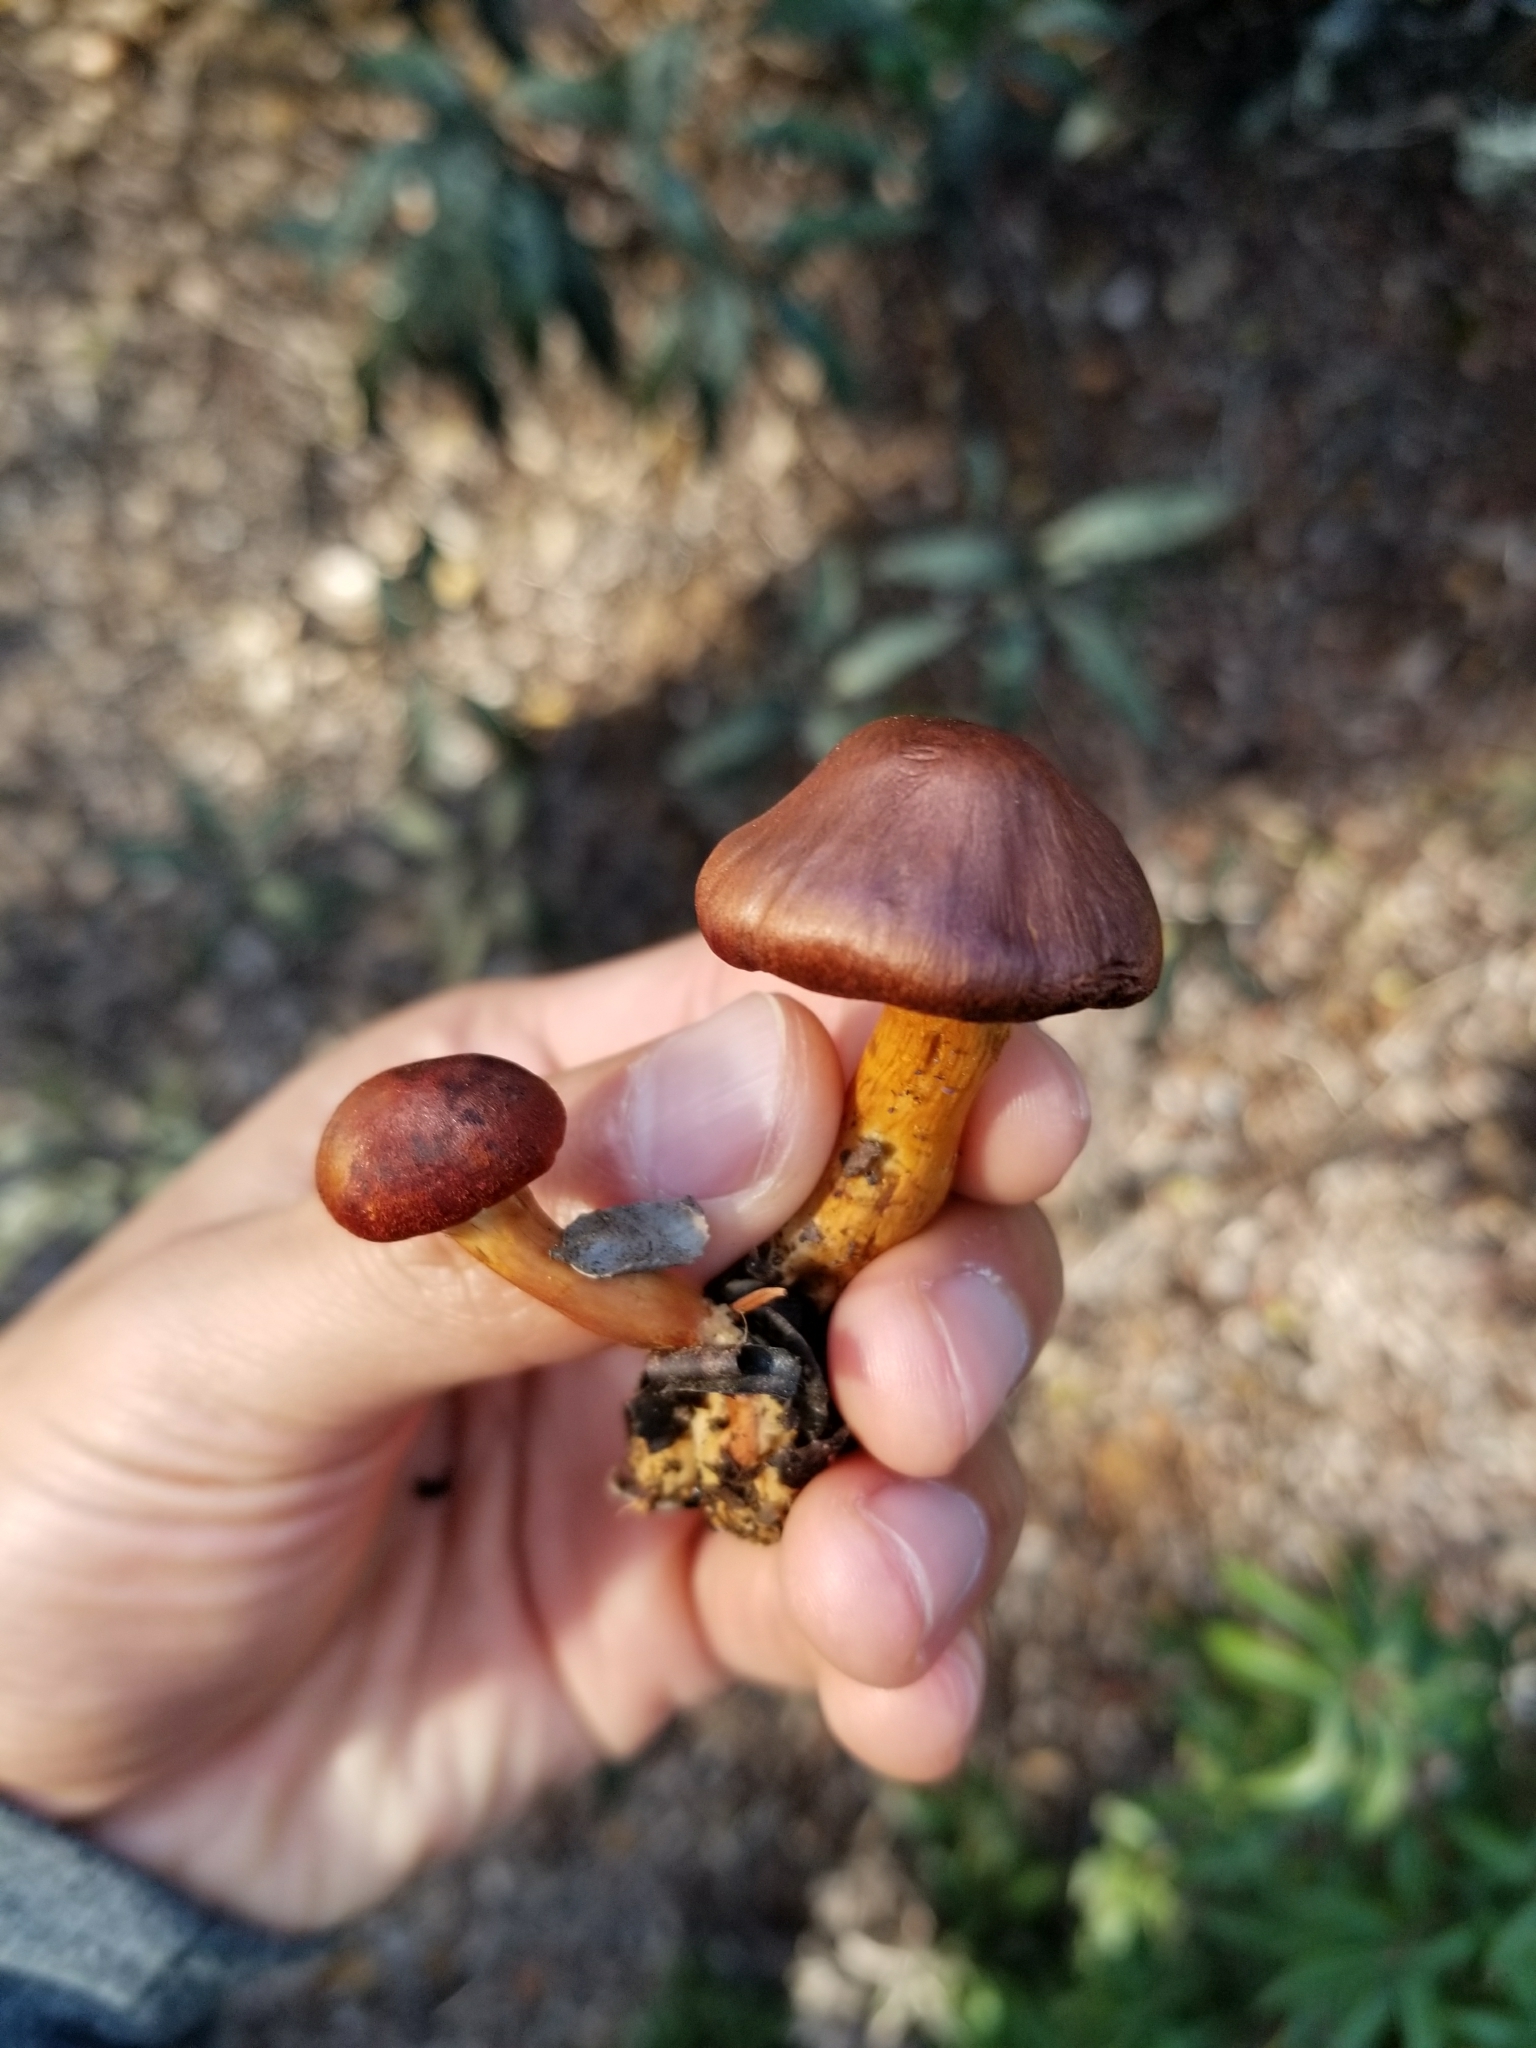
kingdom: Fungi
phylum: Basidiomycota
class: Agaricomycetes
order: Agaricales
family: Cortinariaceae
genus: Cortinarius
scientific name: Cortinarius smithii
